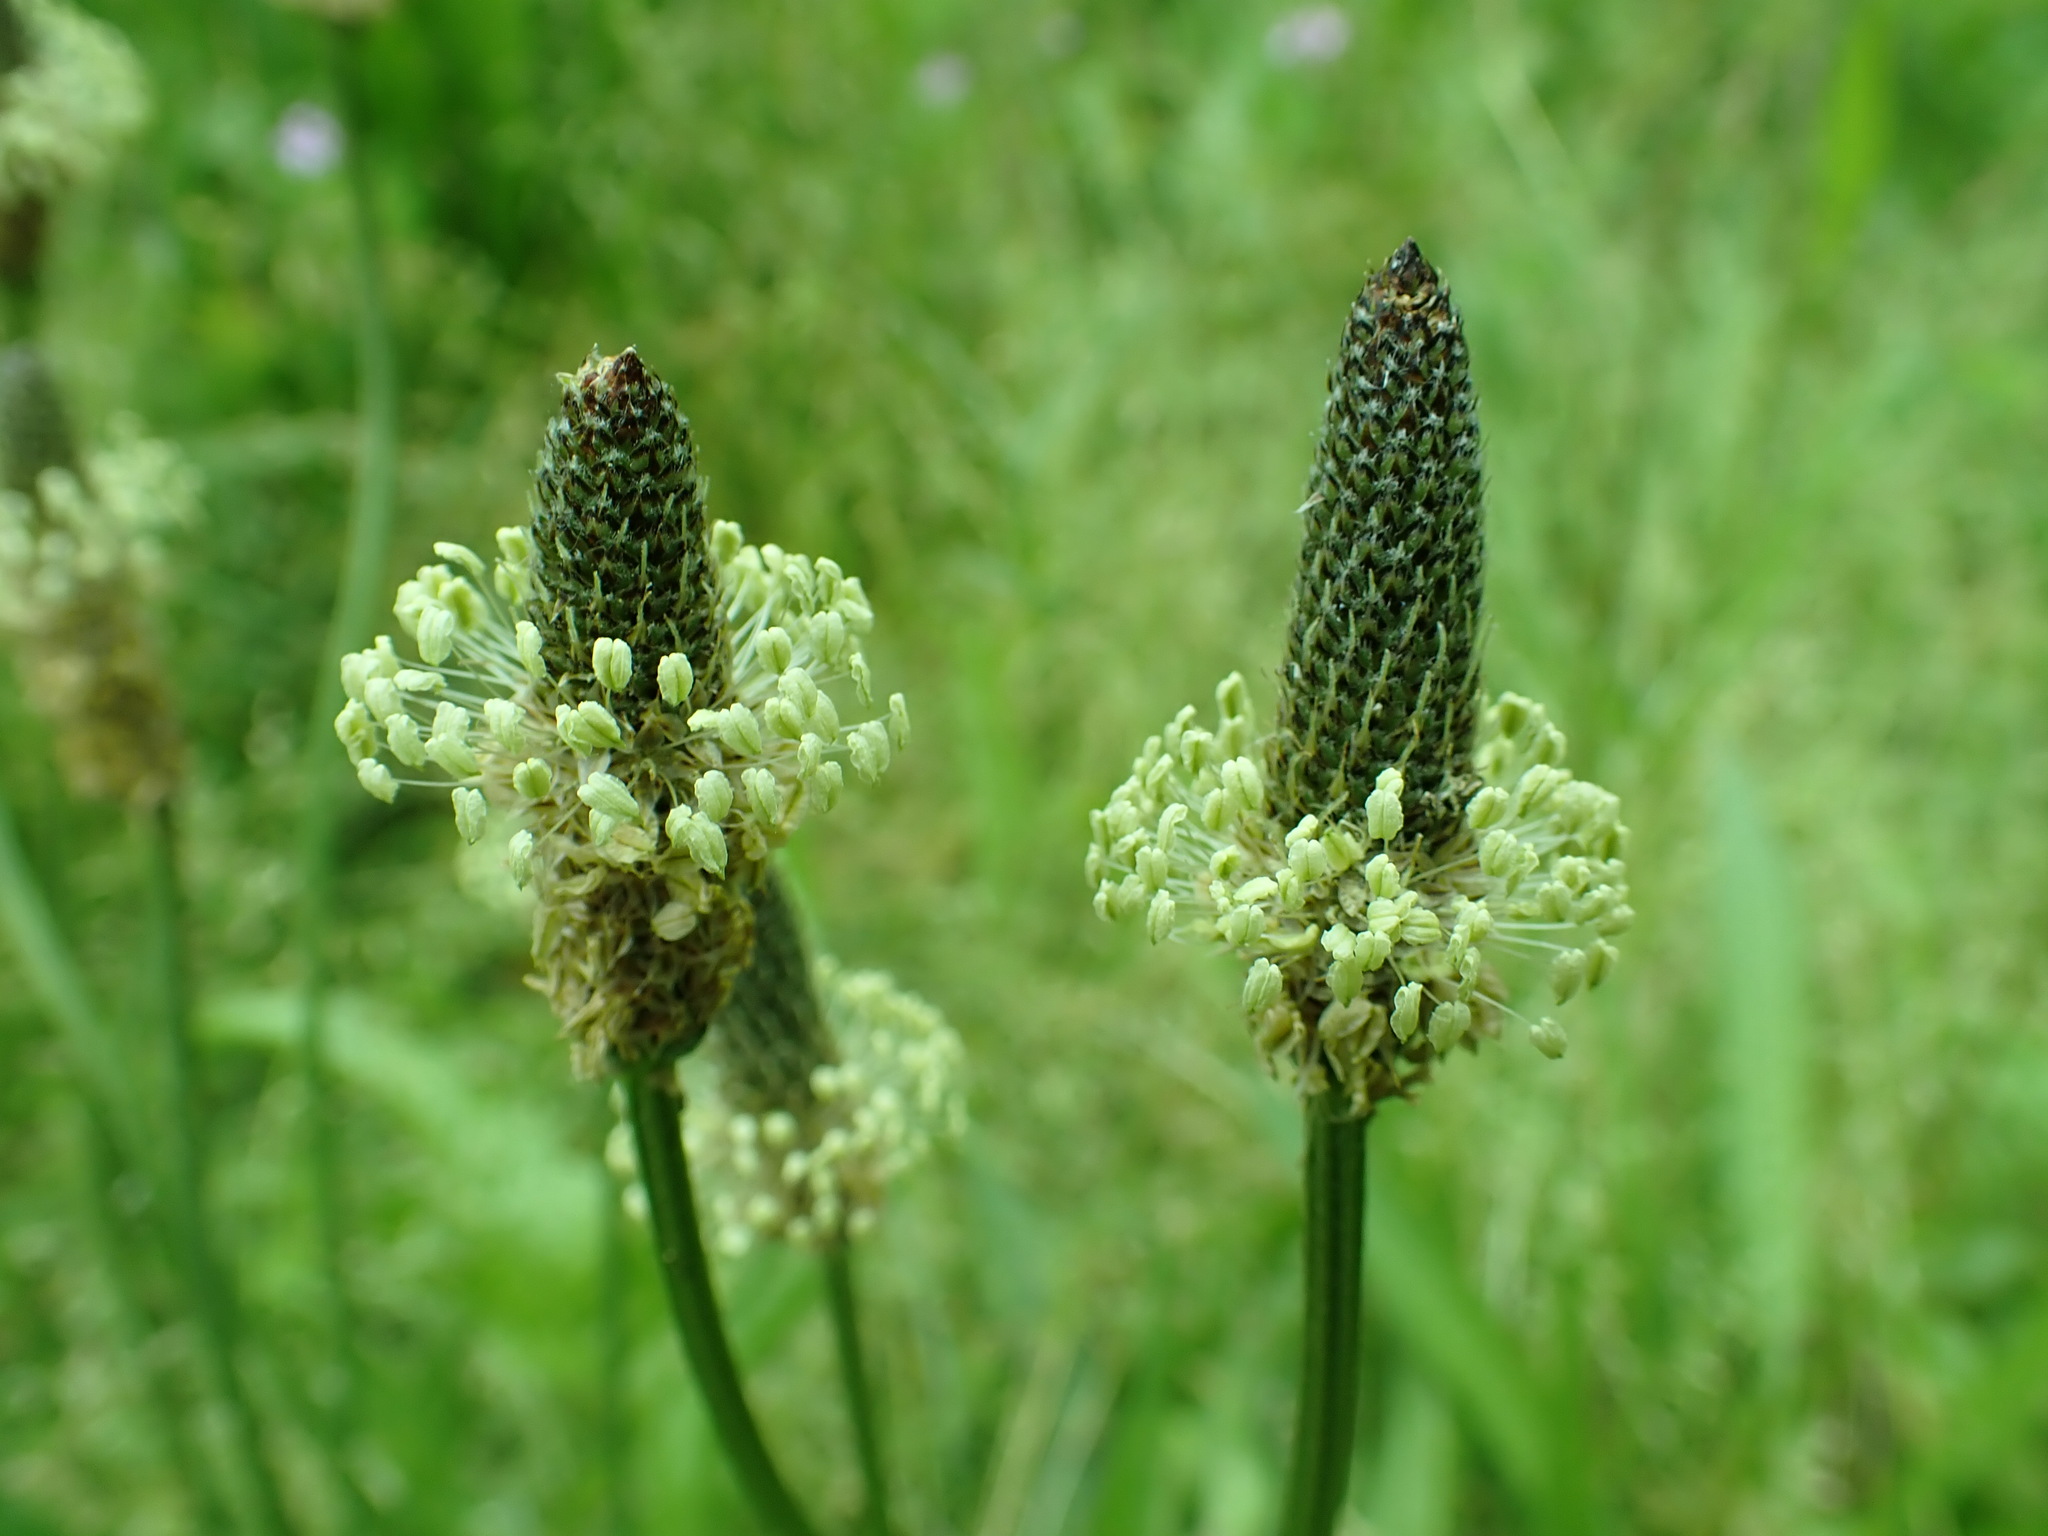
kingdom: Plantae
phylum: Tracheophyta
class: Magnoliopsida
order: Lamiales
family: Plantaginaceae
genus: Plantago
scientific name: Plantago lanceolata
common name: Ribwort plantain
